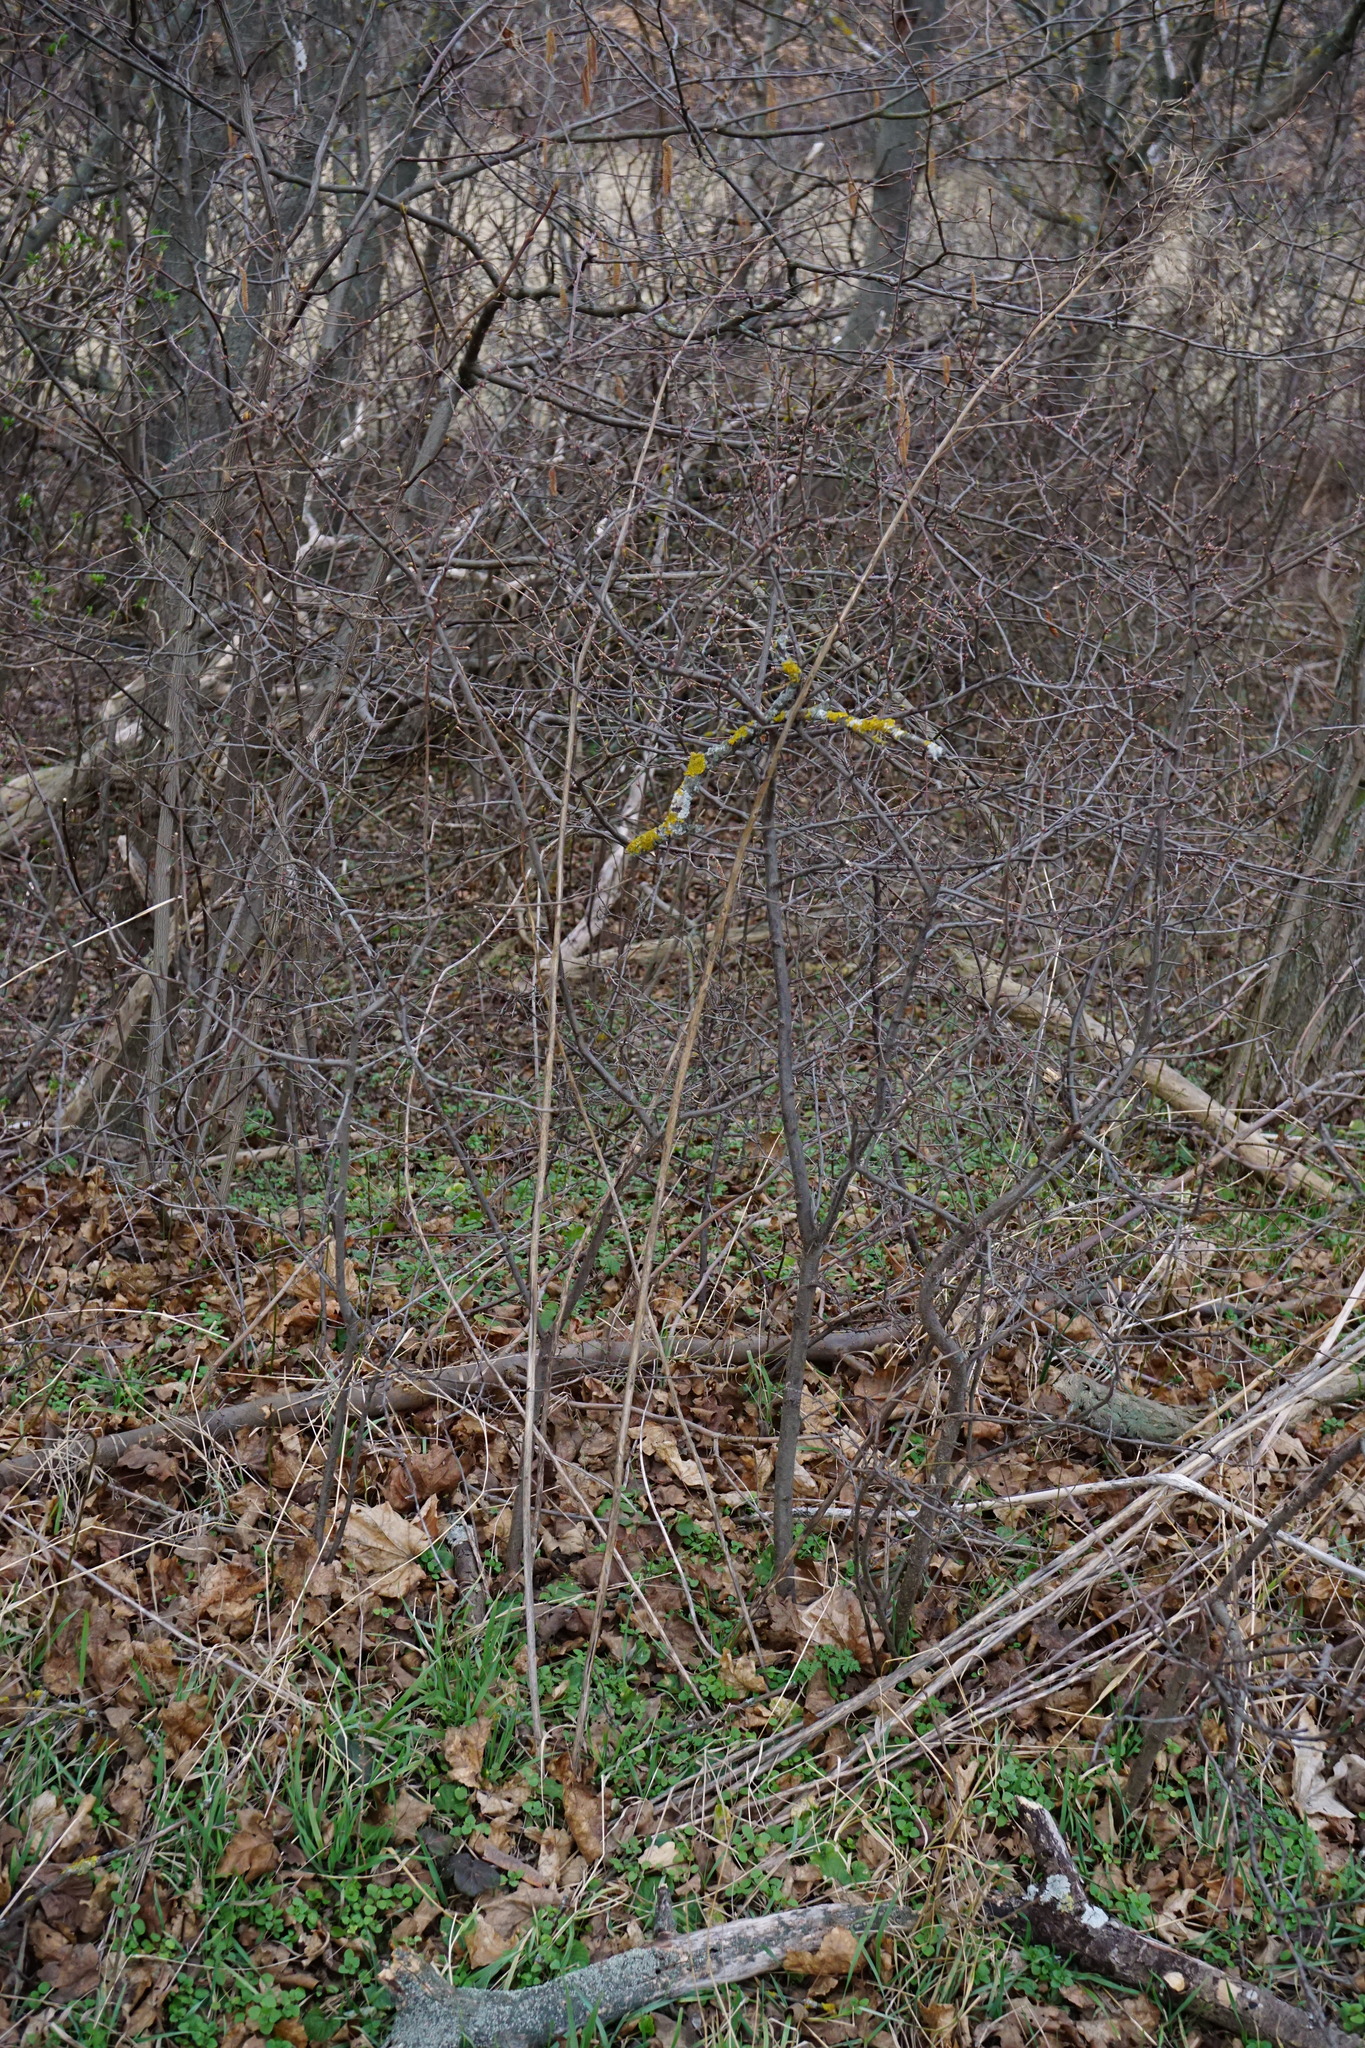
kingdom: Plantae
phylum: Tracheophyta
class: Magnoliopsida
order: Brassicales
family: Brassicaceae
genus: Sisymbrium
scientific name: Sisymbrium strictissimum
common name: Perennial rocket
